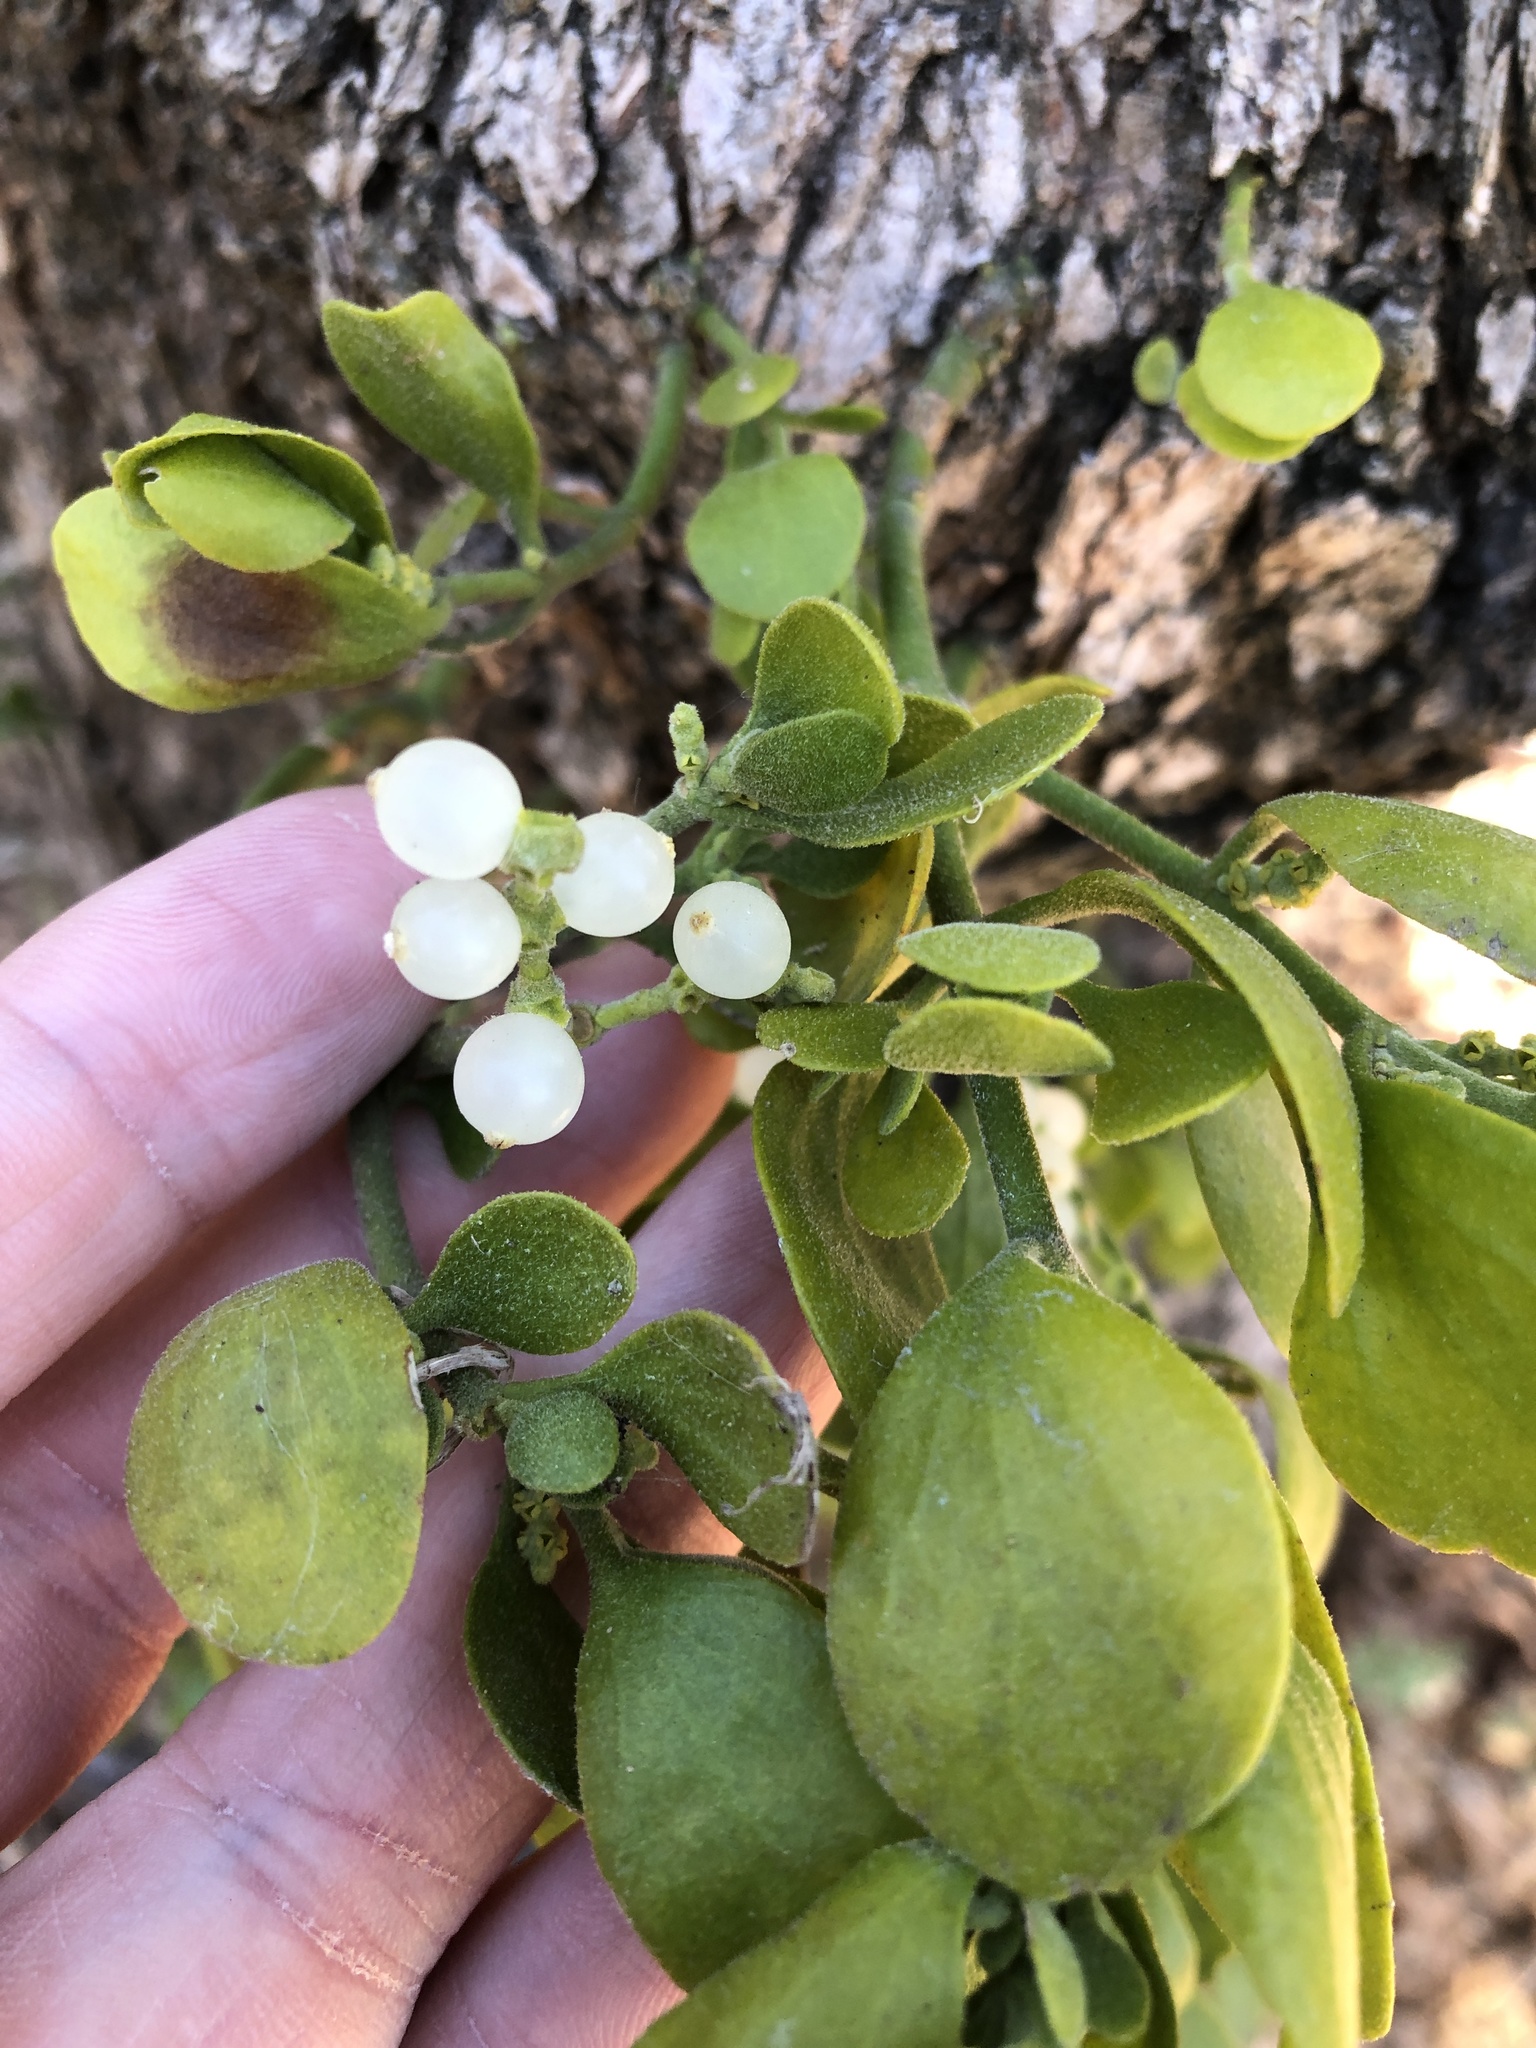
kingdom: Plantae
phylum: Tracheophyta
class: Magnoliopsida
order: Santalales
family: Viscaceae
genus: Phoradendron
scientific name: Phoradendron leucarpum
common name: Pacific mistletoe
